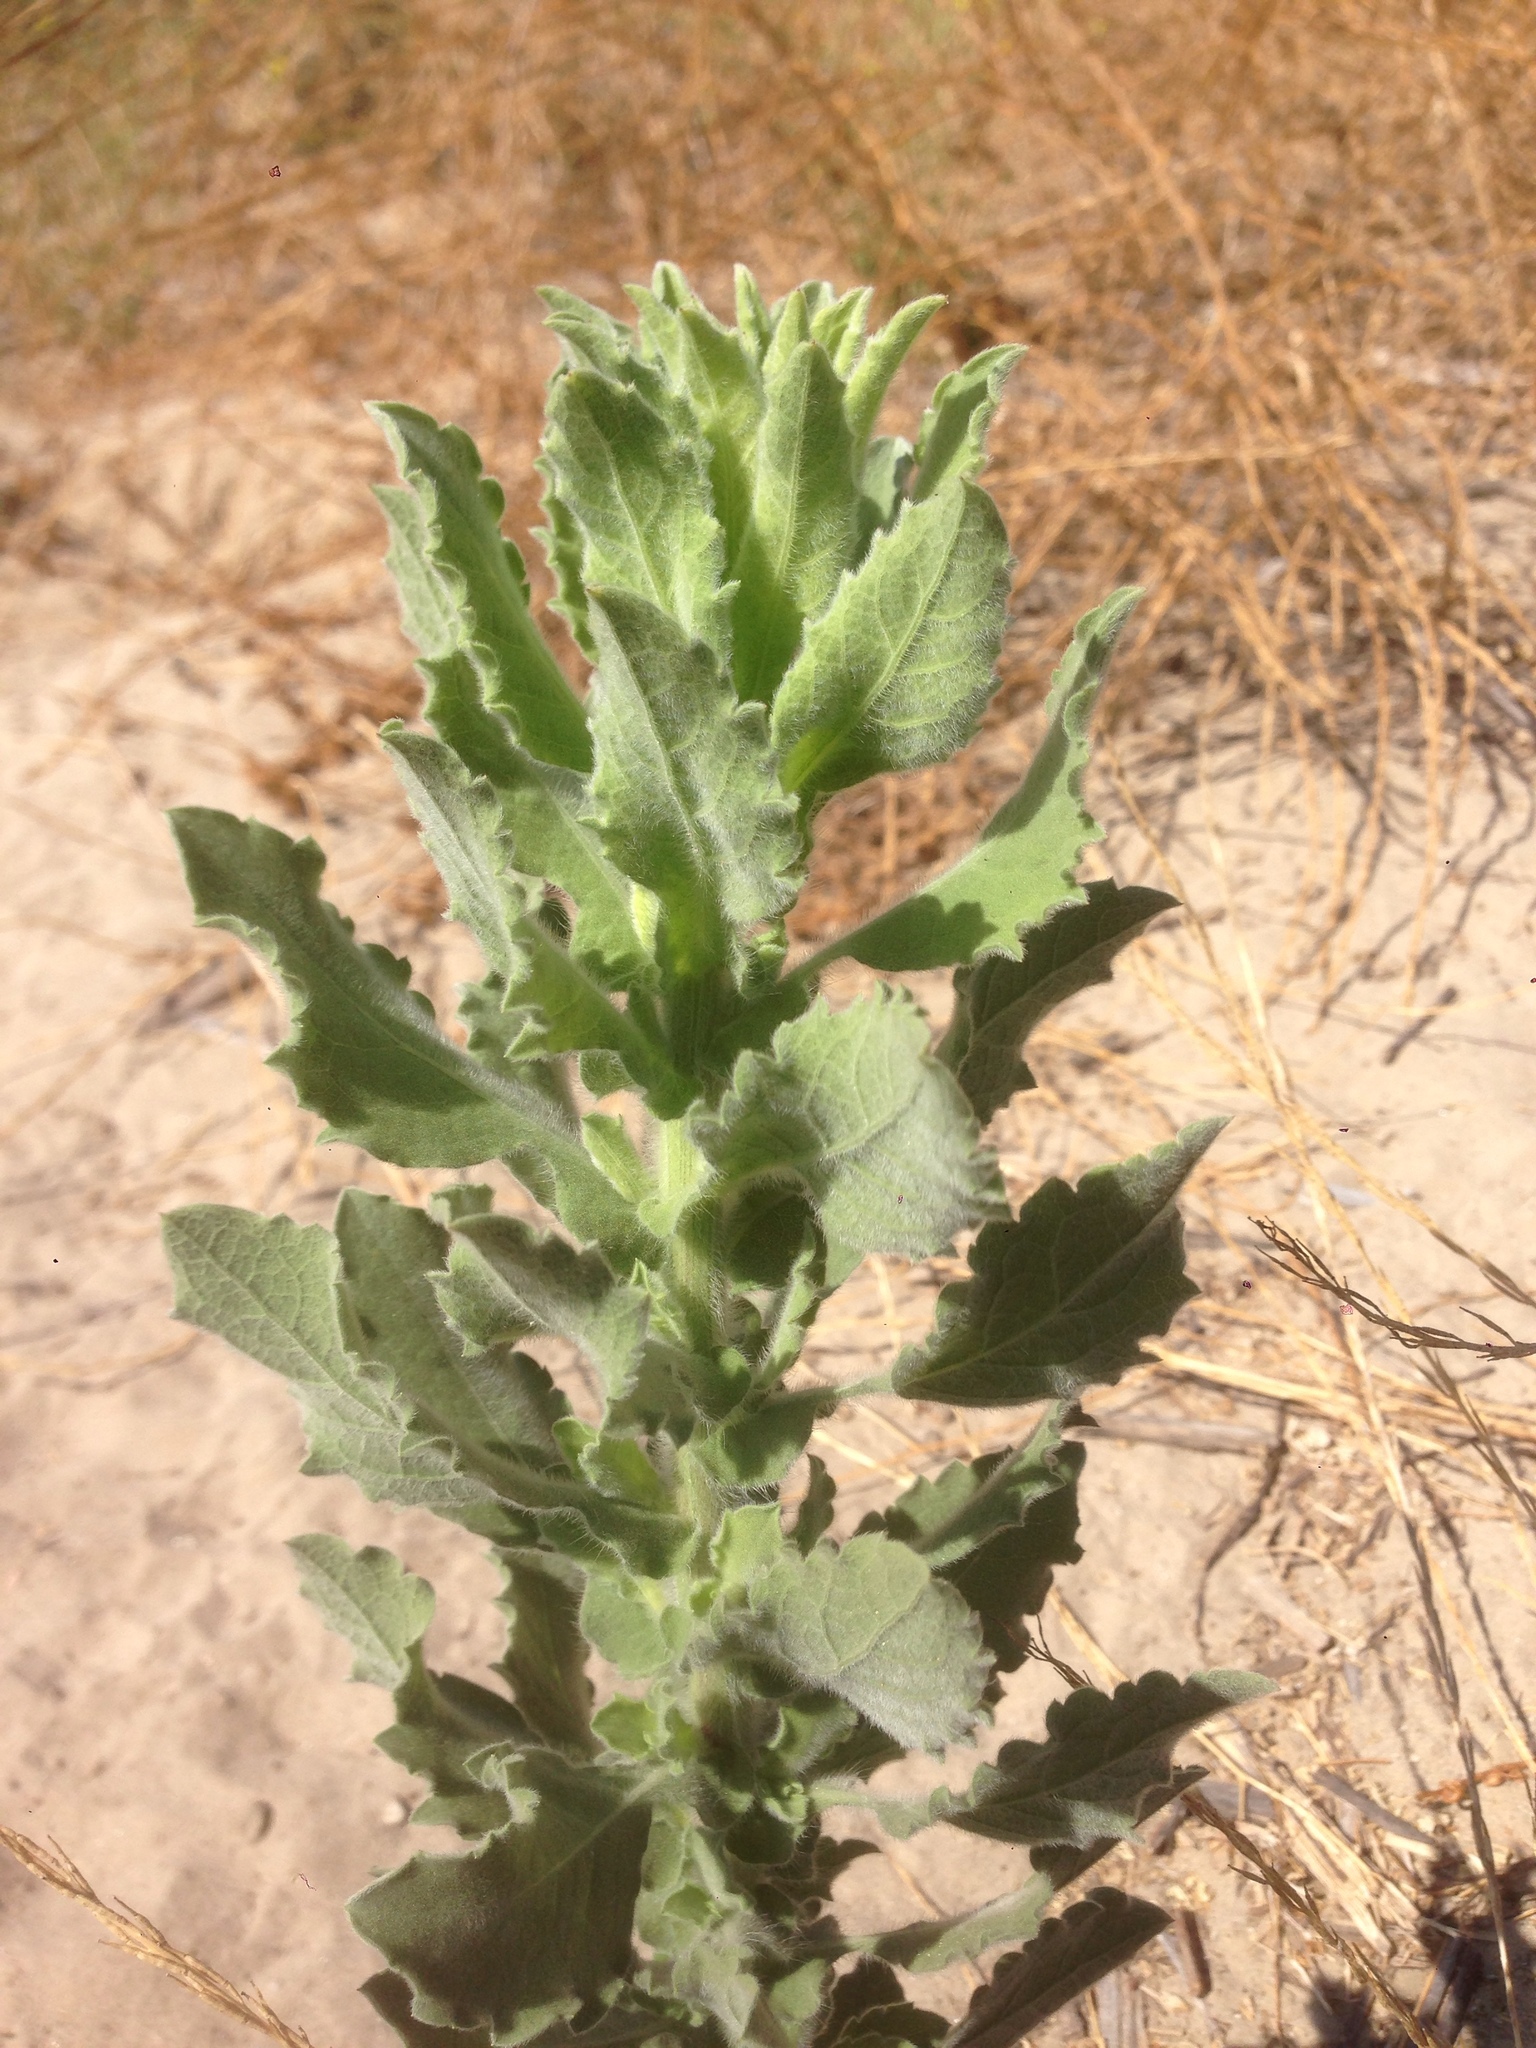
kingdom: Plantae
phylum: Tracheophyta
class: Magnoliopsida
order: Asterales
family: Asteraceae
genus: Heterotheca
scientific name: Heterotheca grandiflora
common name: Telegraphweed
